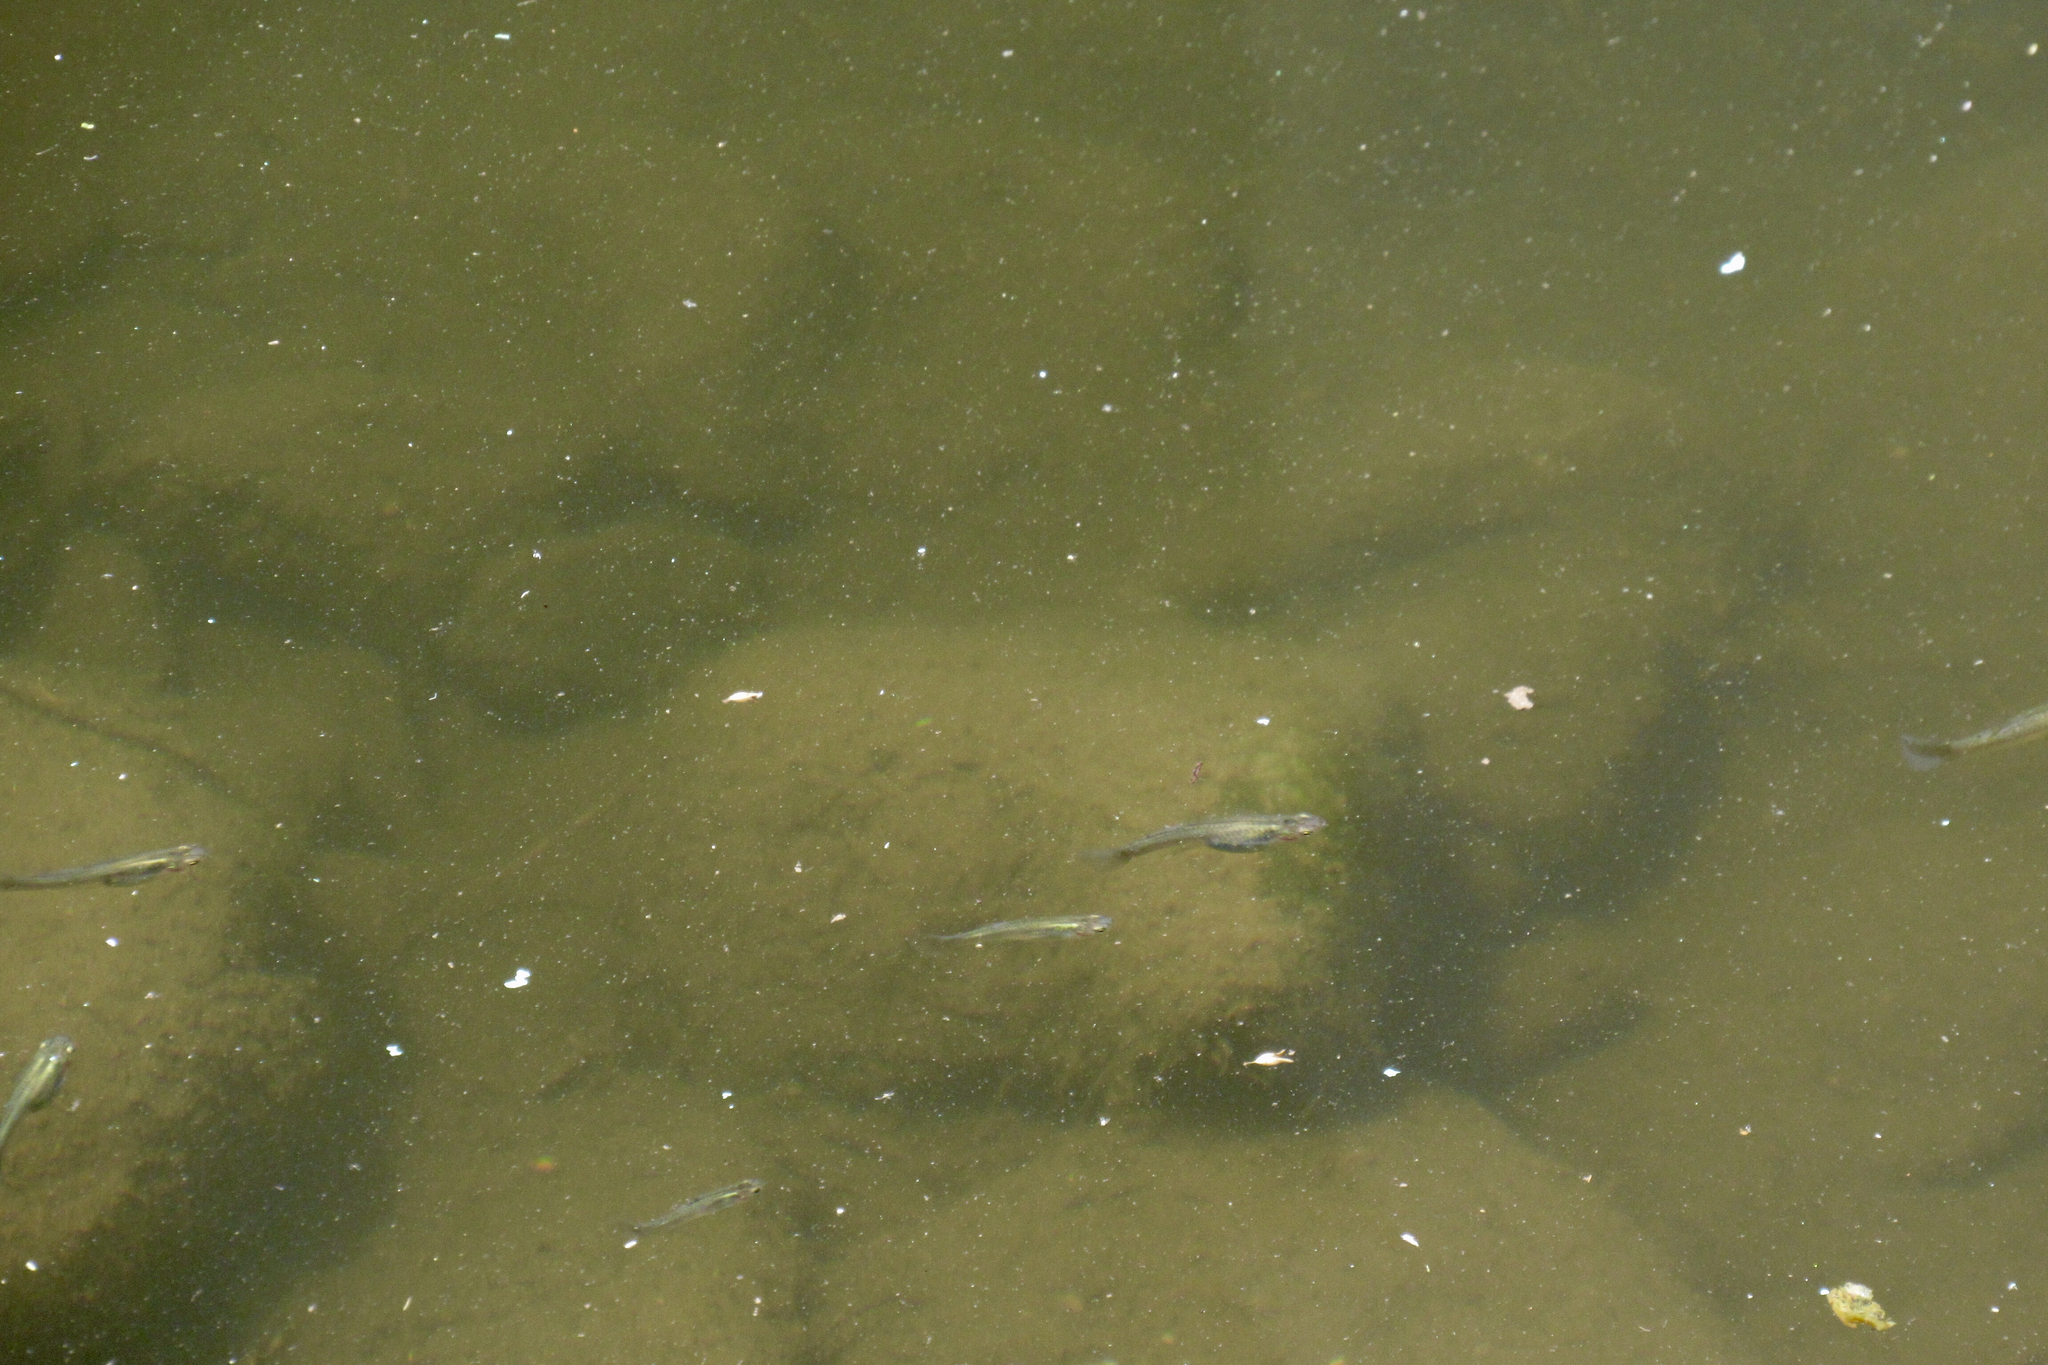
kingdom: Animalia
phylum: Chordata
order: Cyprinodontiformes
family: Poeciliidae
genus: Gambusia
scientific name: Gambusia affinis
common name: Mosquitofish
